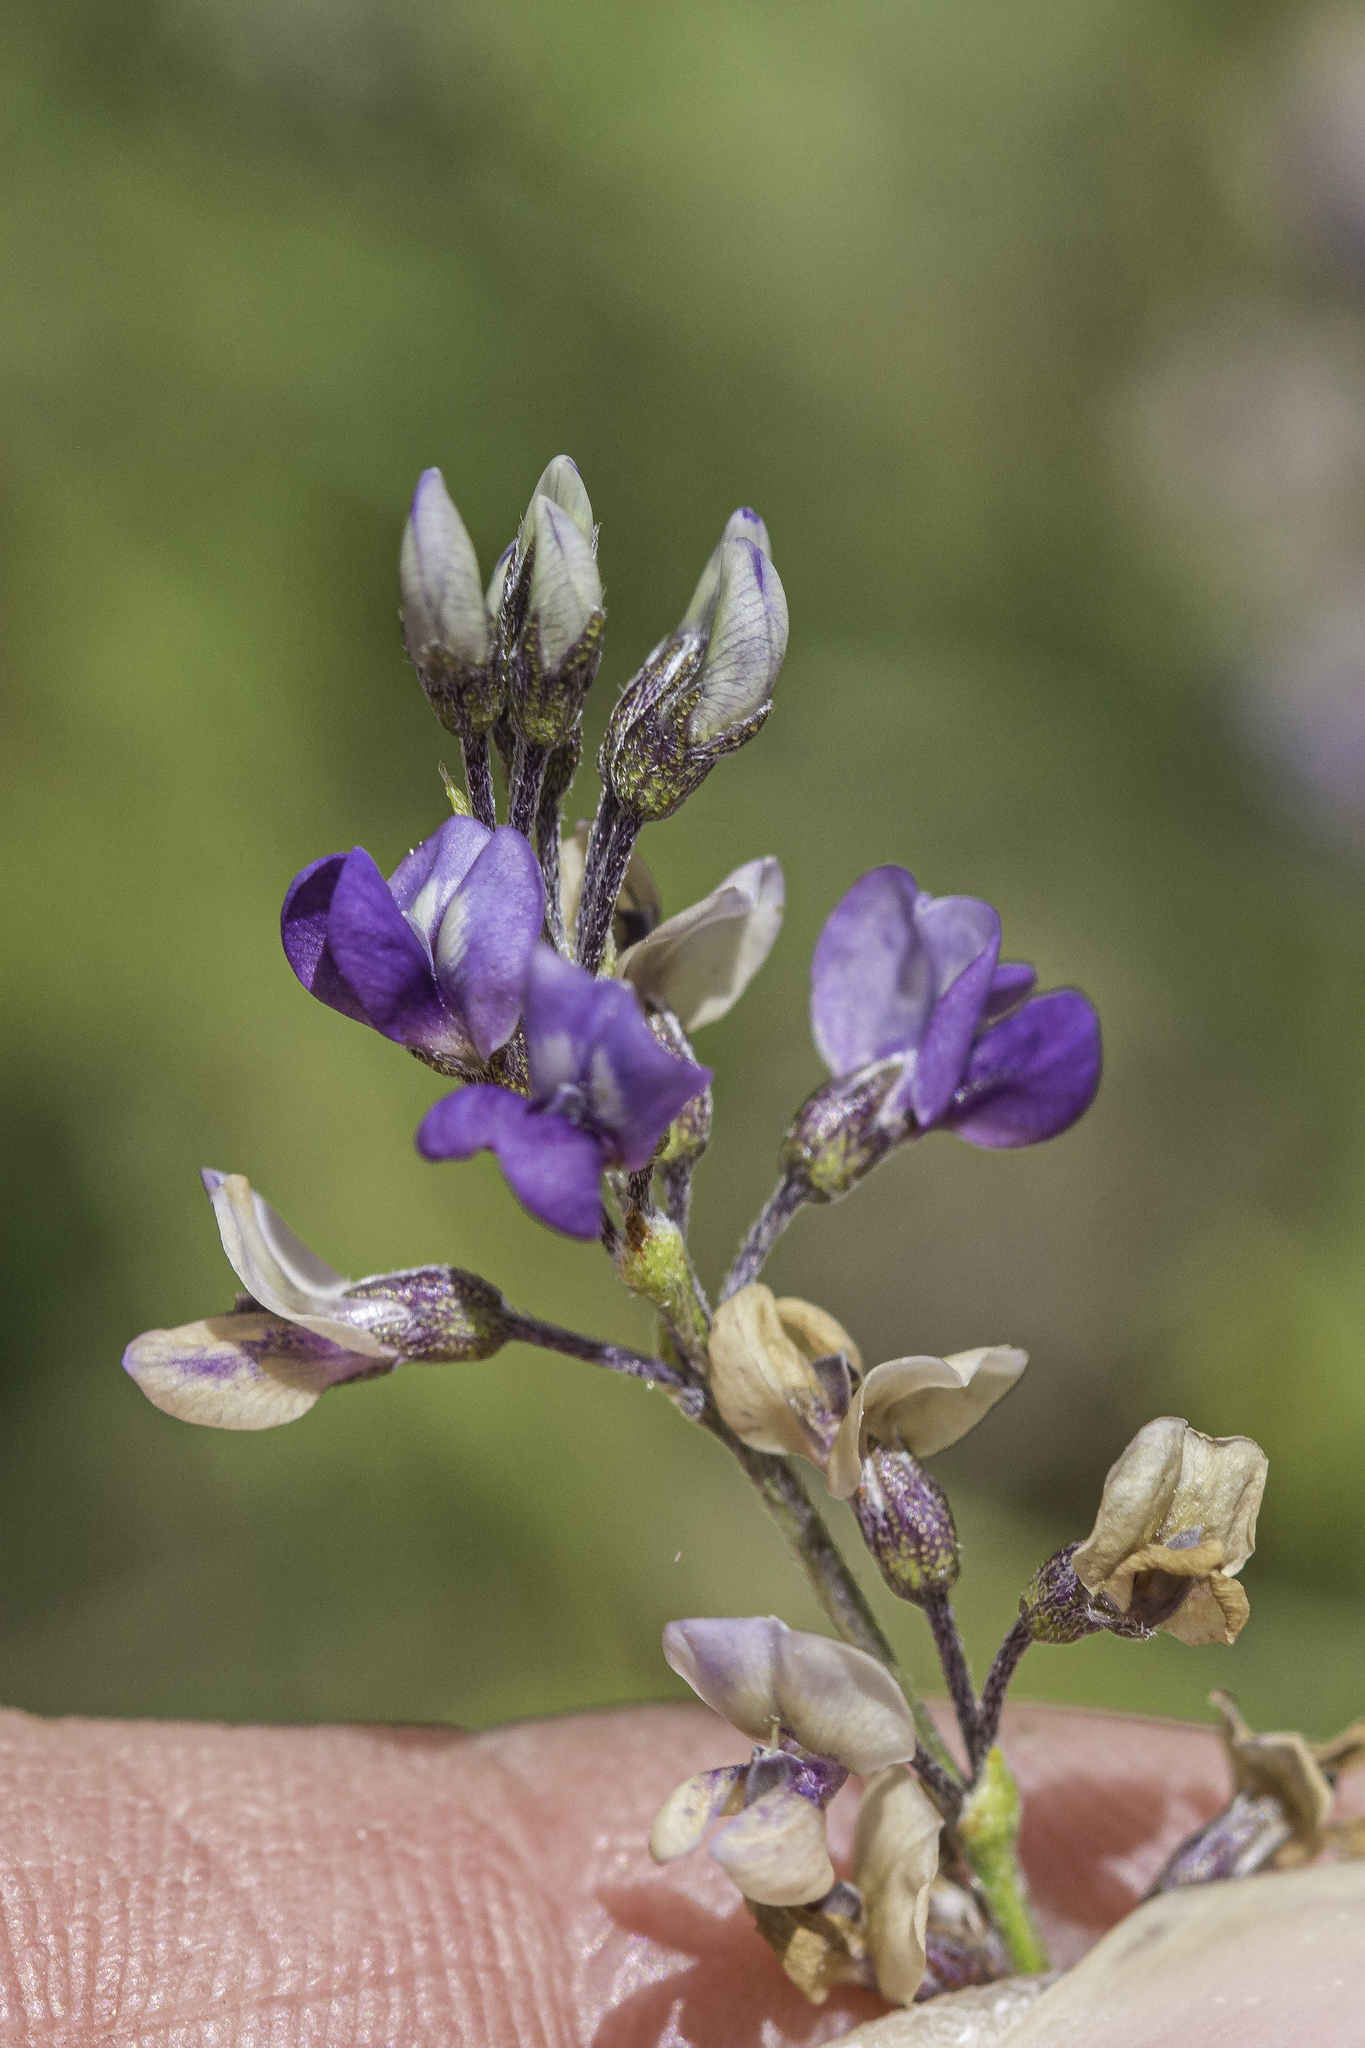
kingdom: Plantae
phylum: Tracheophyta
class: Magnoliopsida
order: Fabales
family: Fabaceae
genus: Pediomelum
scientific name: Pediomelum tenuiflorum
